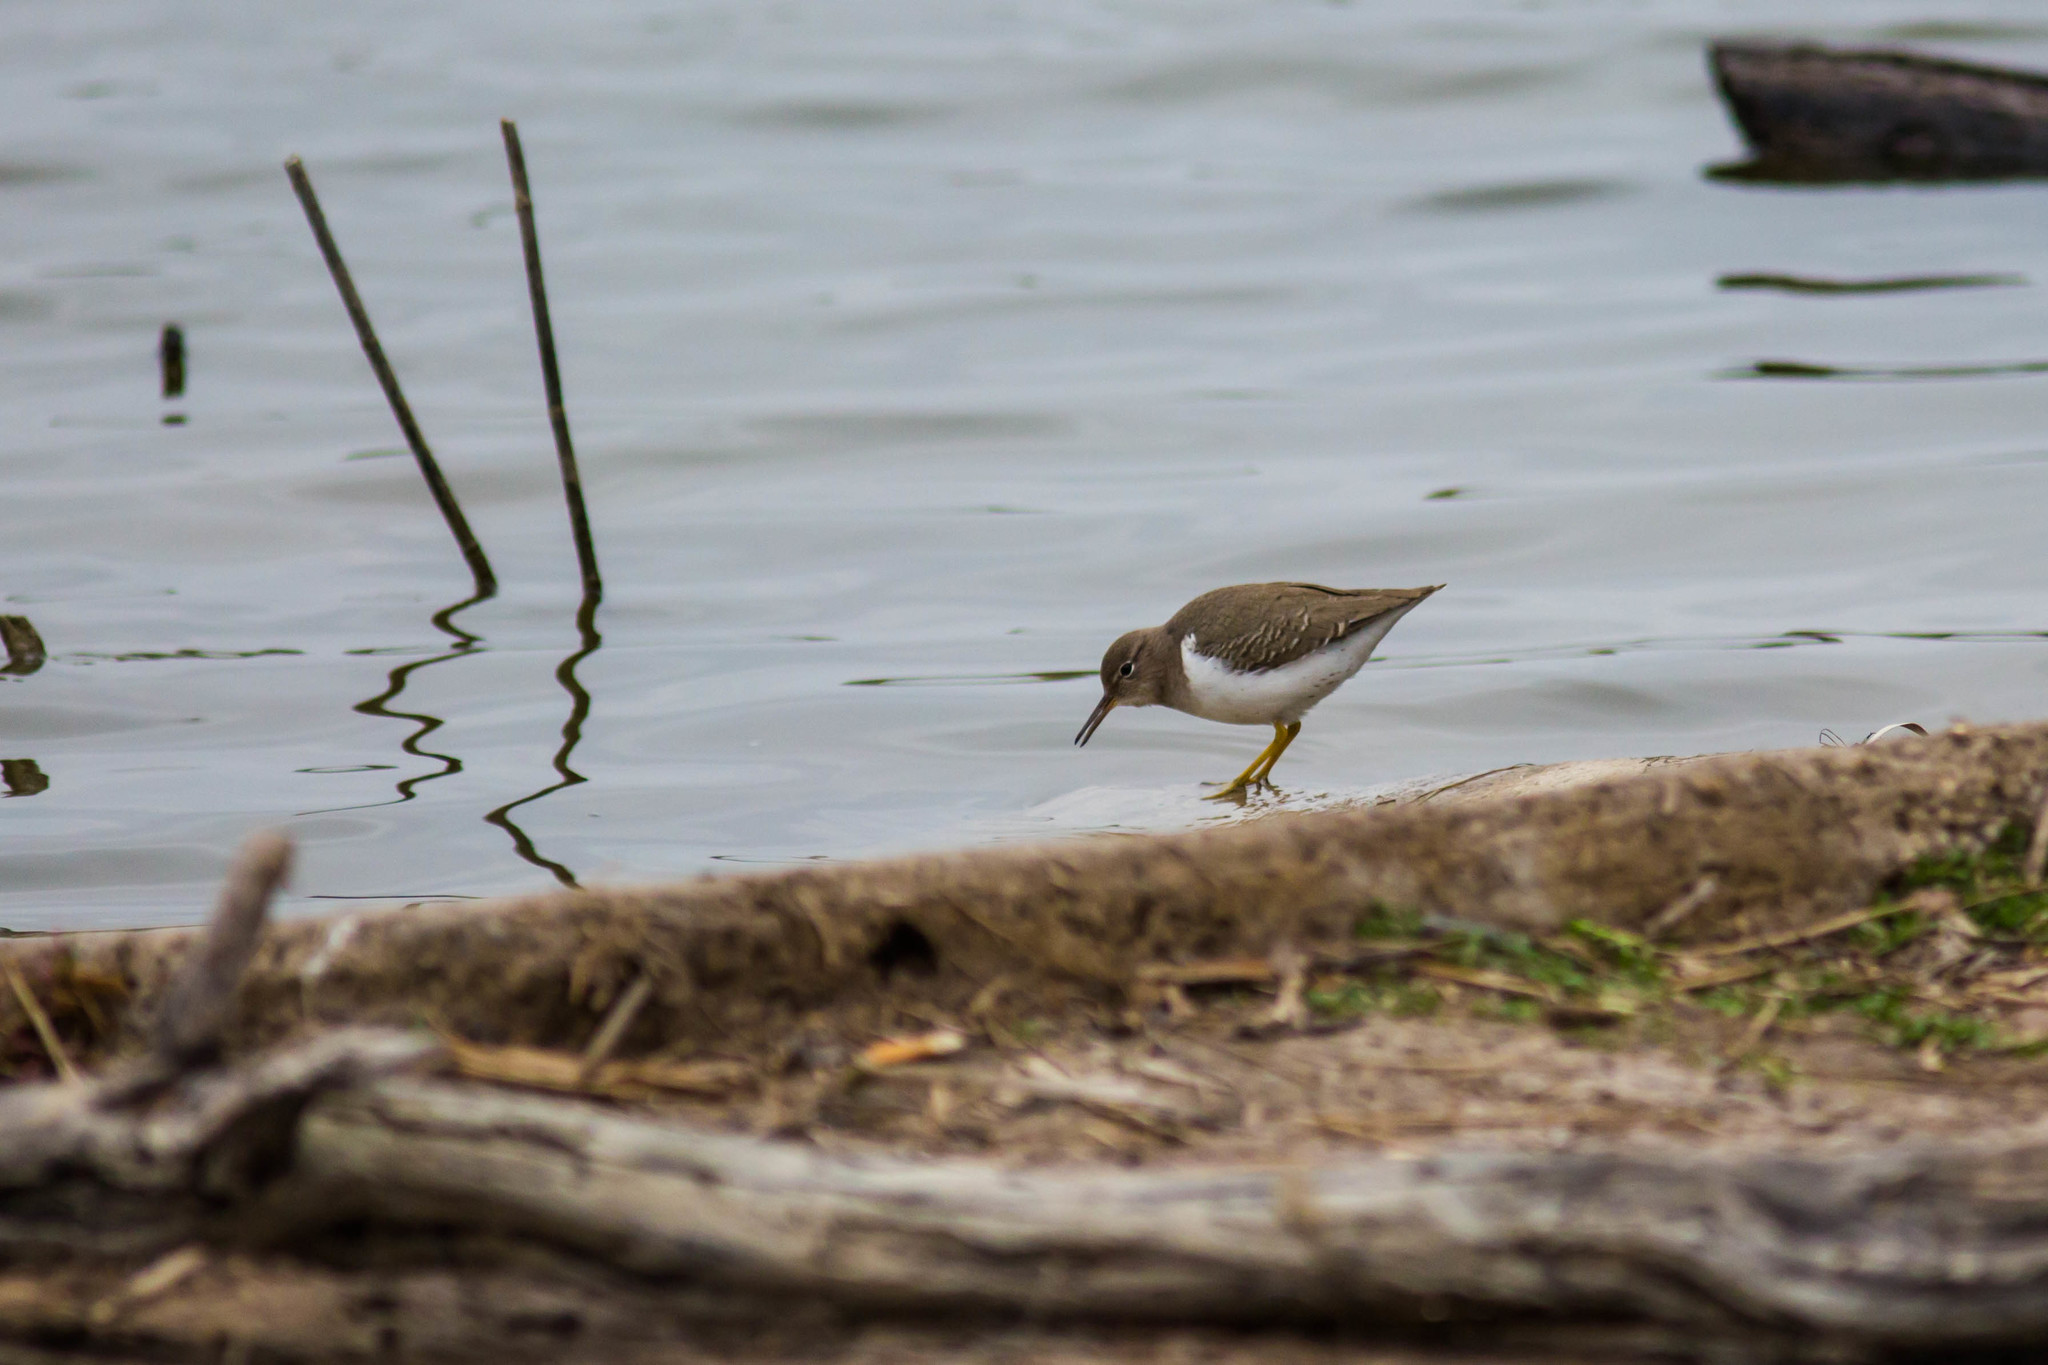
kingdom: Animalia
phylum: Chordata
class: Aves
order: Charadriiformes
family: Scolopacidae
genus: Actitis
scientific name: Actitis macularius
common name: Spotted sandpiper
